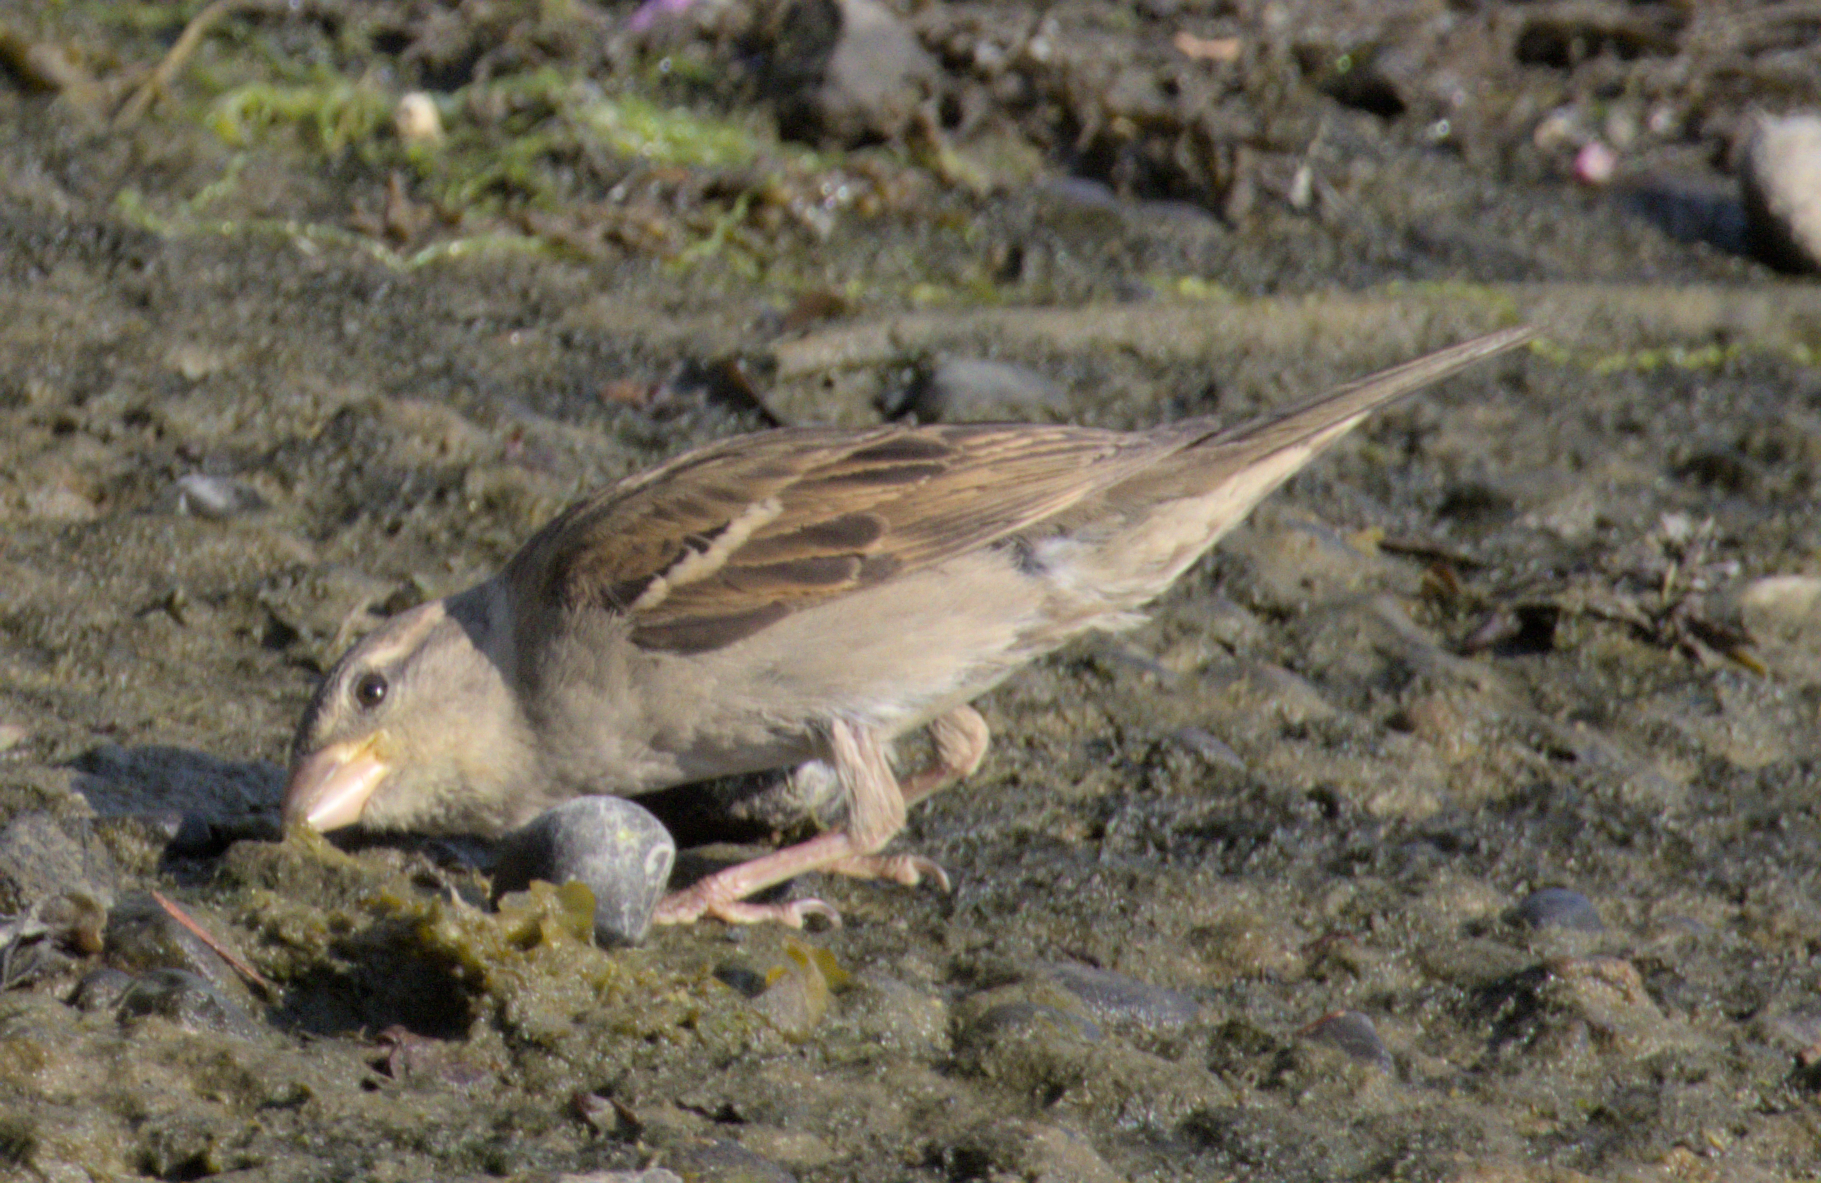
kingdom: Animalia
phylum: Chordata
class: Aves
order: Passeriformes
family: Passeridae
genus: Passer
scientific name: Passer domesticus
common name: House sparrow
